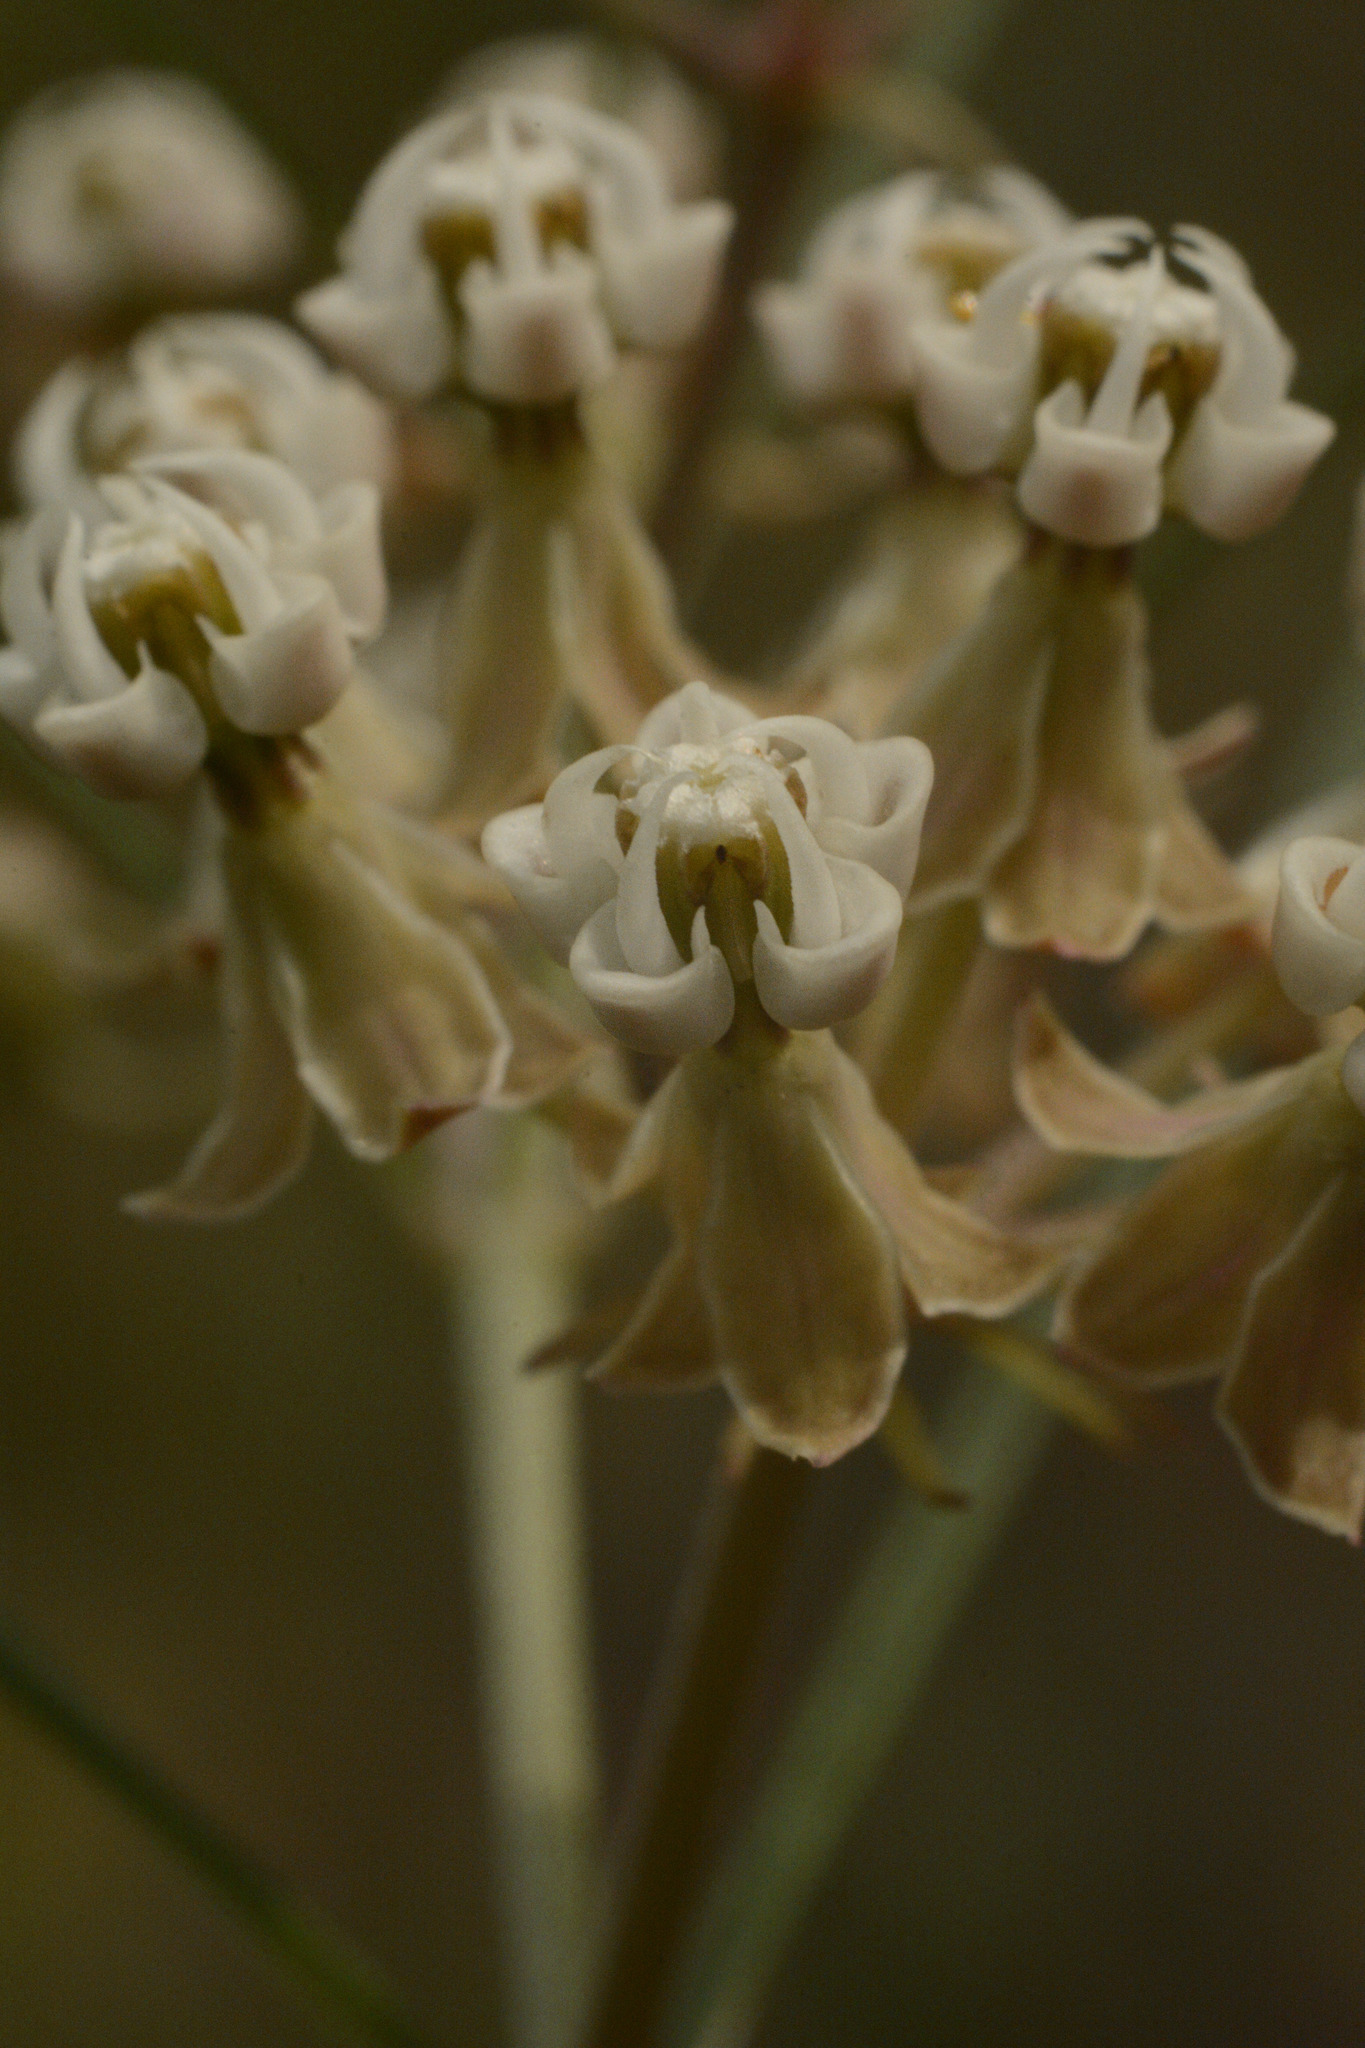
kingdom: Plantae
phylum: Tracheophyta
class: Magnoliopsida
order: Gentianales
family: Apocynaceae
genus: Asclepias
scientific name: Asclepias verticillata
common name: Eastern whorled milkweed
